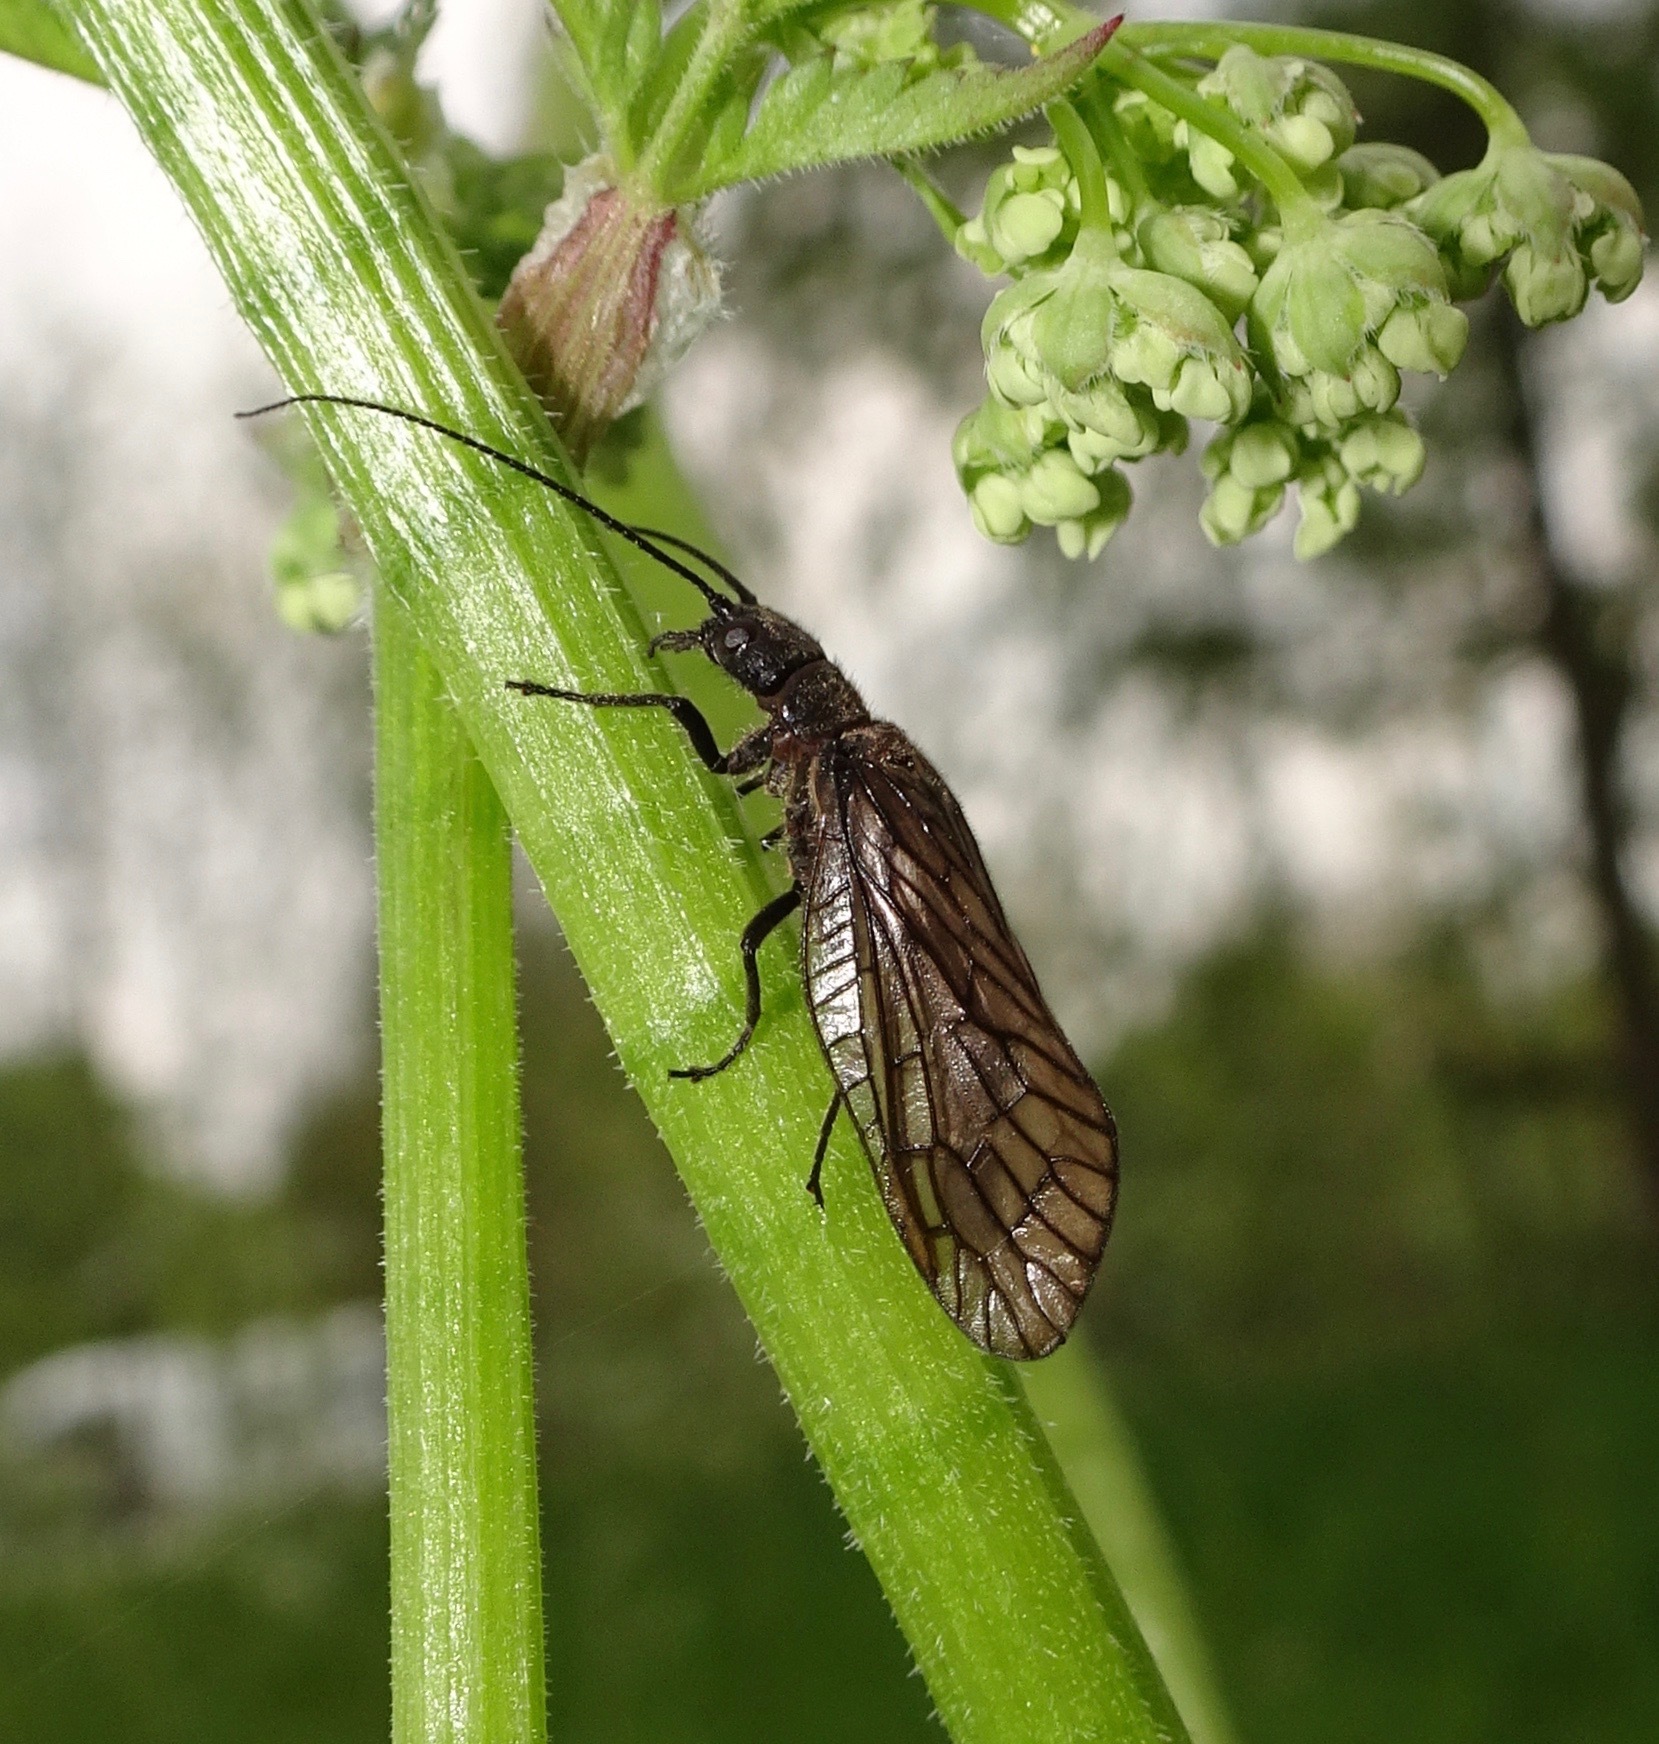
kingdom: Animalia
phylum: Arthropoda
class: Insecta
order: Megaloptera
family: Sialidae
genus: Sialis
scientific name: Sialis
